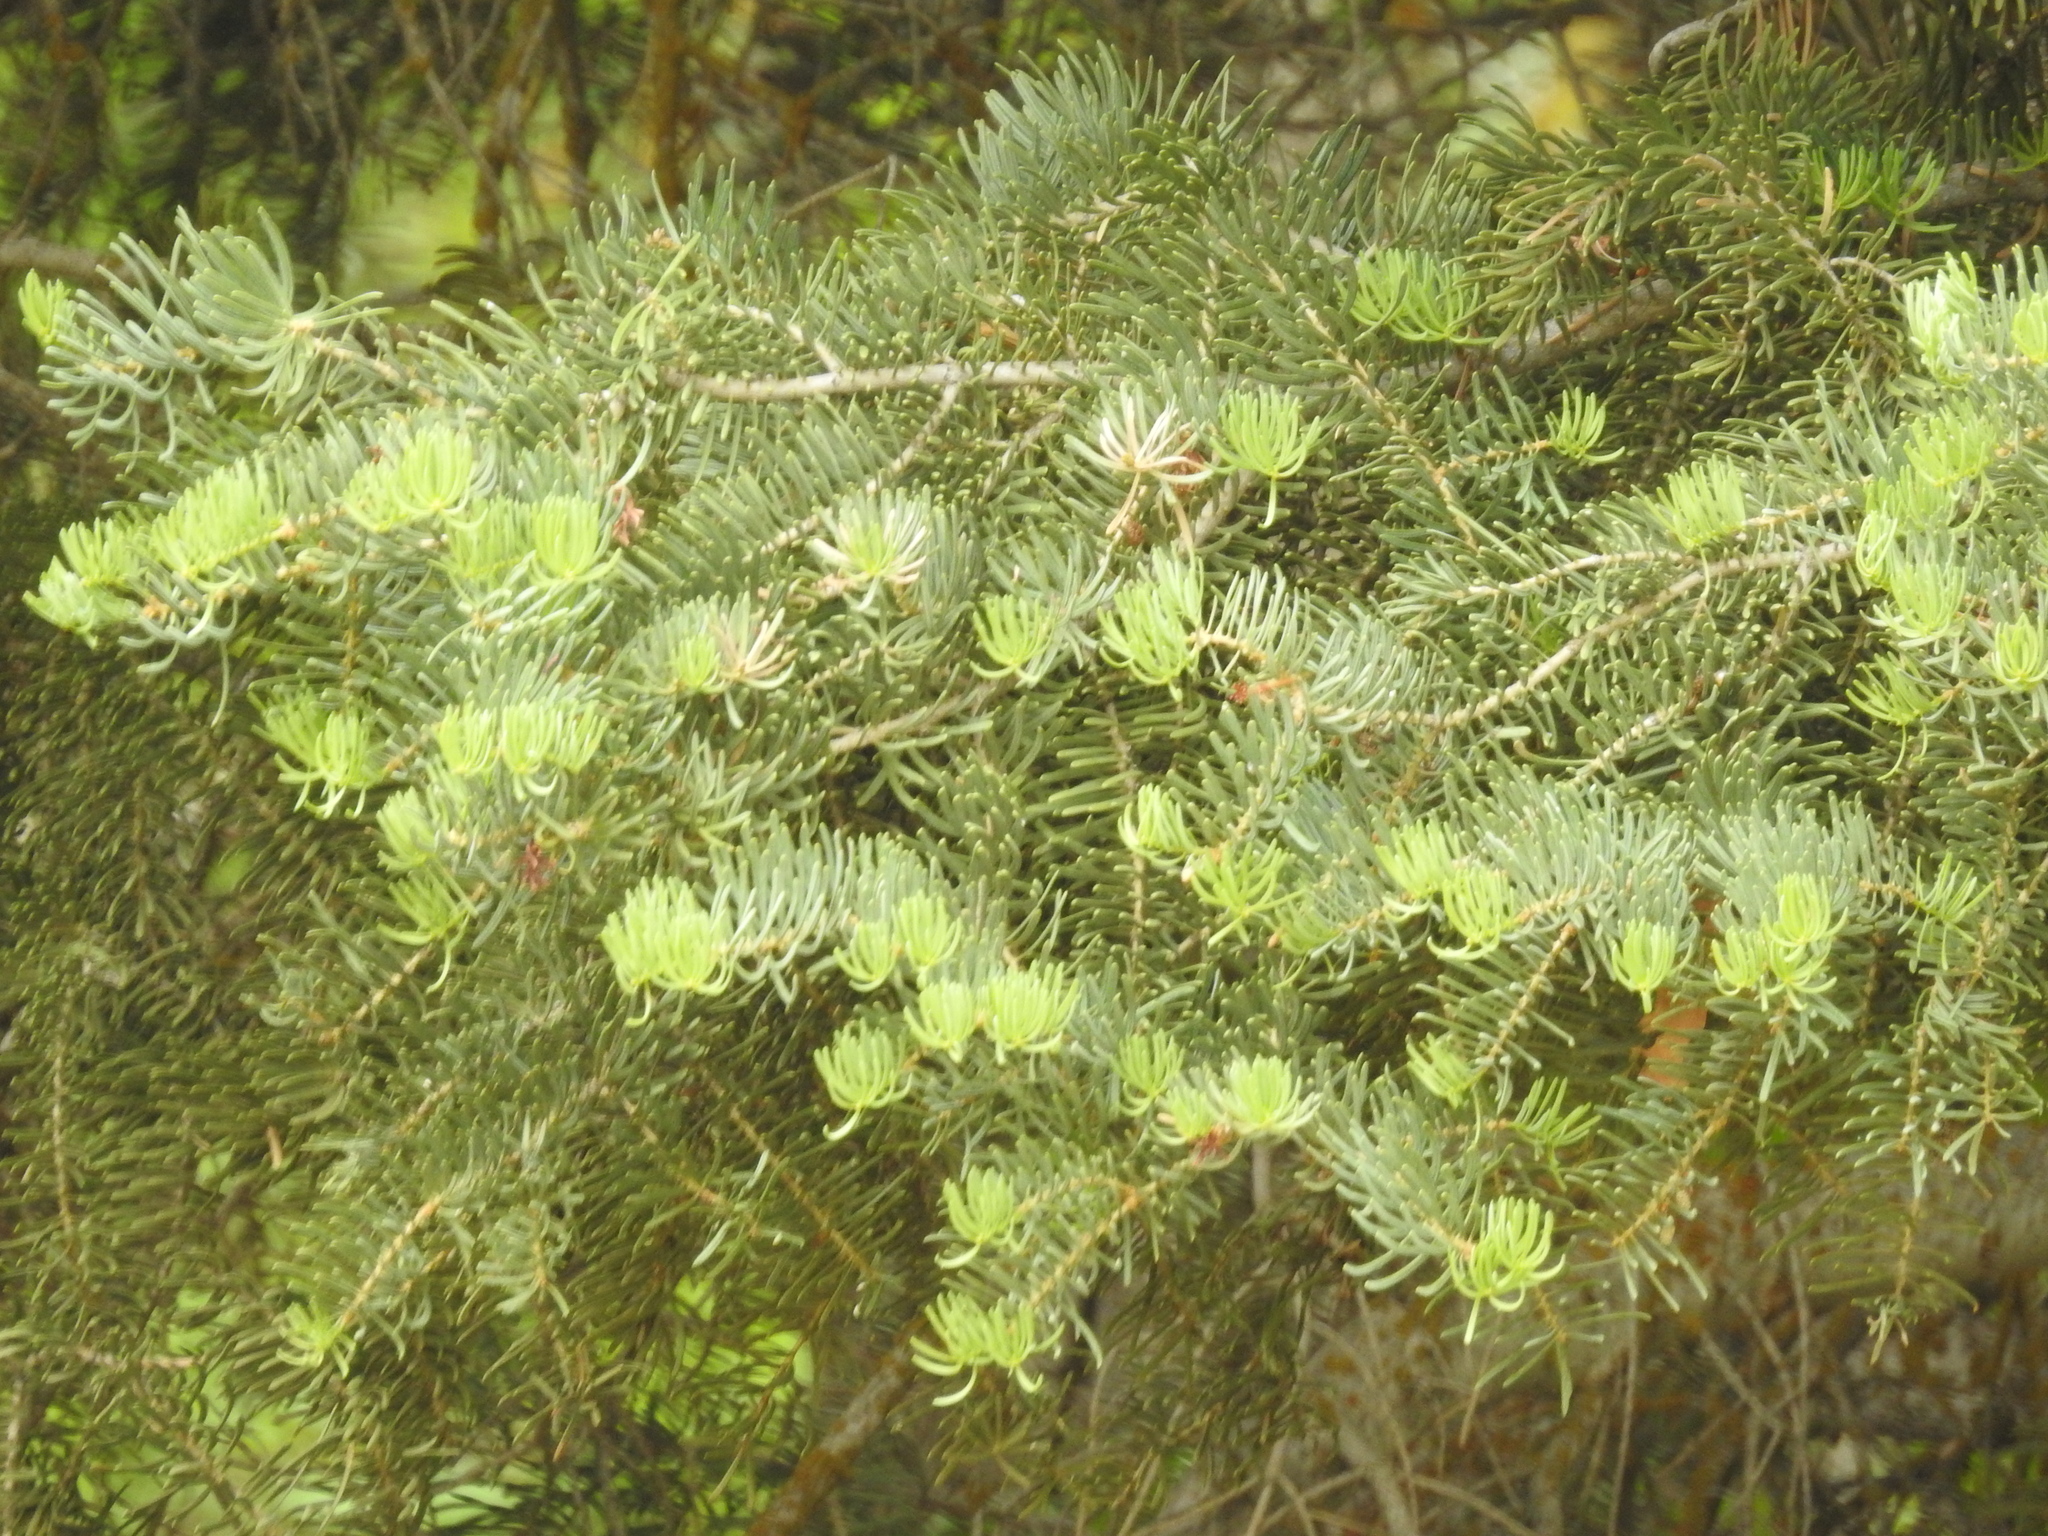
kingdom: Plantae
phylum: Tracheophyta
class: Pinopsida
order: Pinales
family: Pinaceae
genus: Abies
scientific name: Abies concolor
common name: Colorado fir
